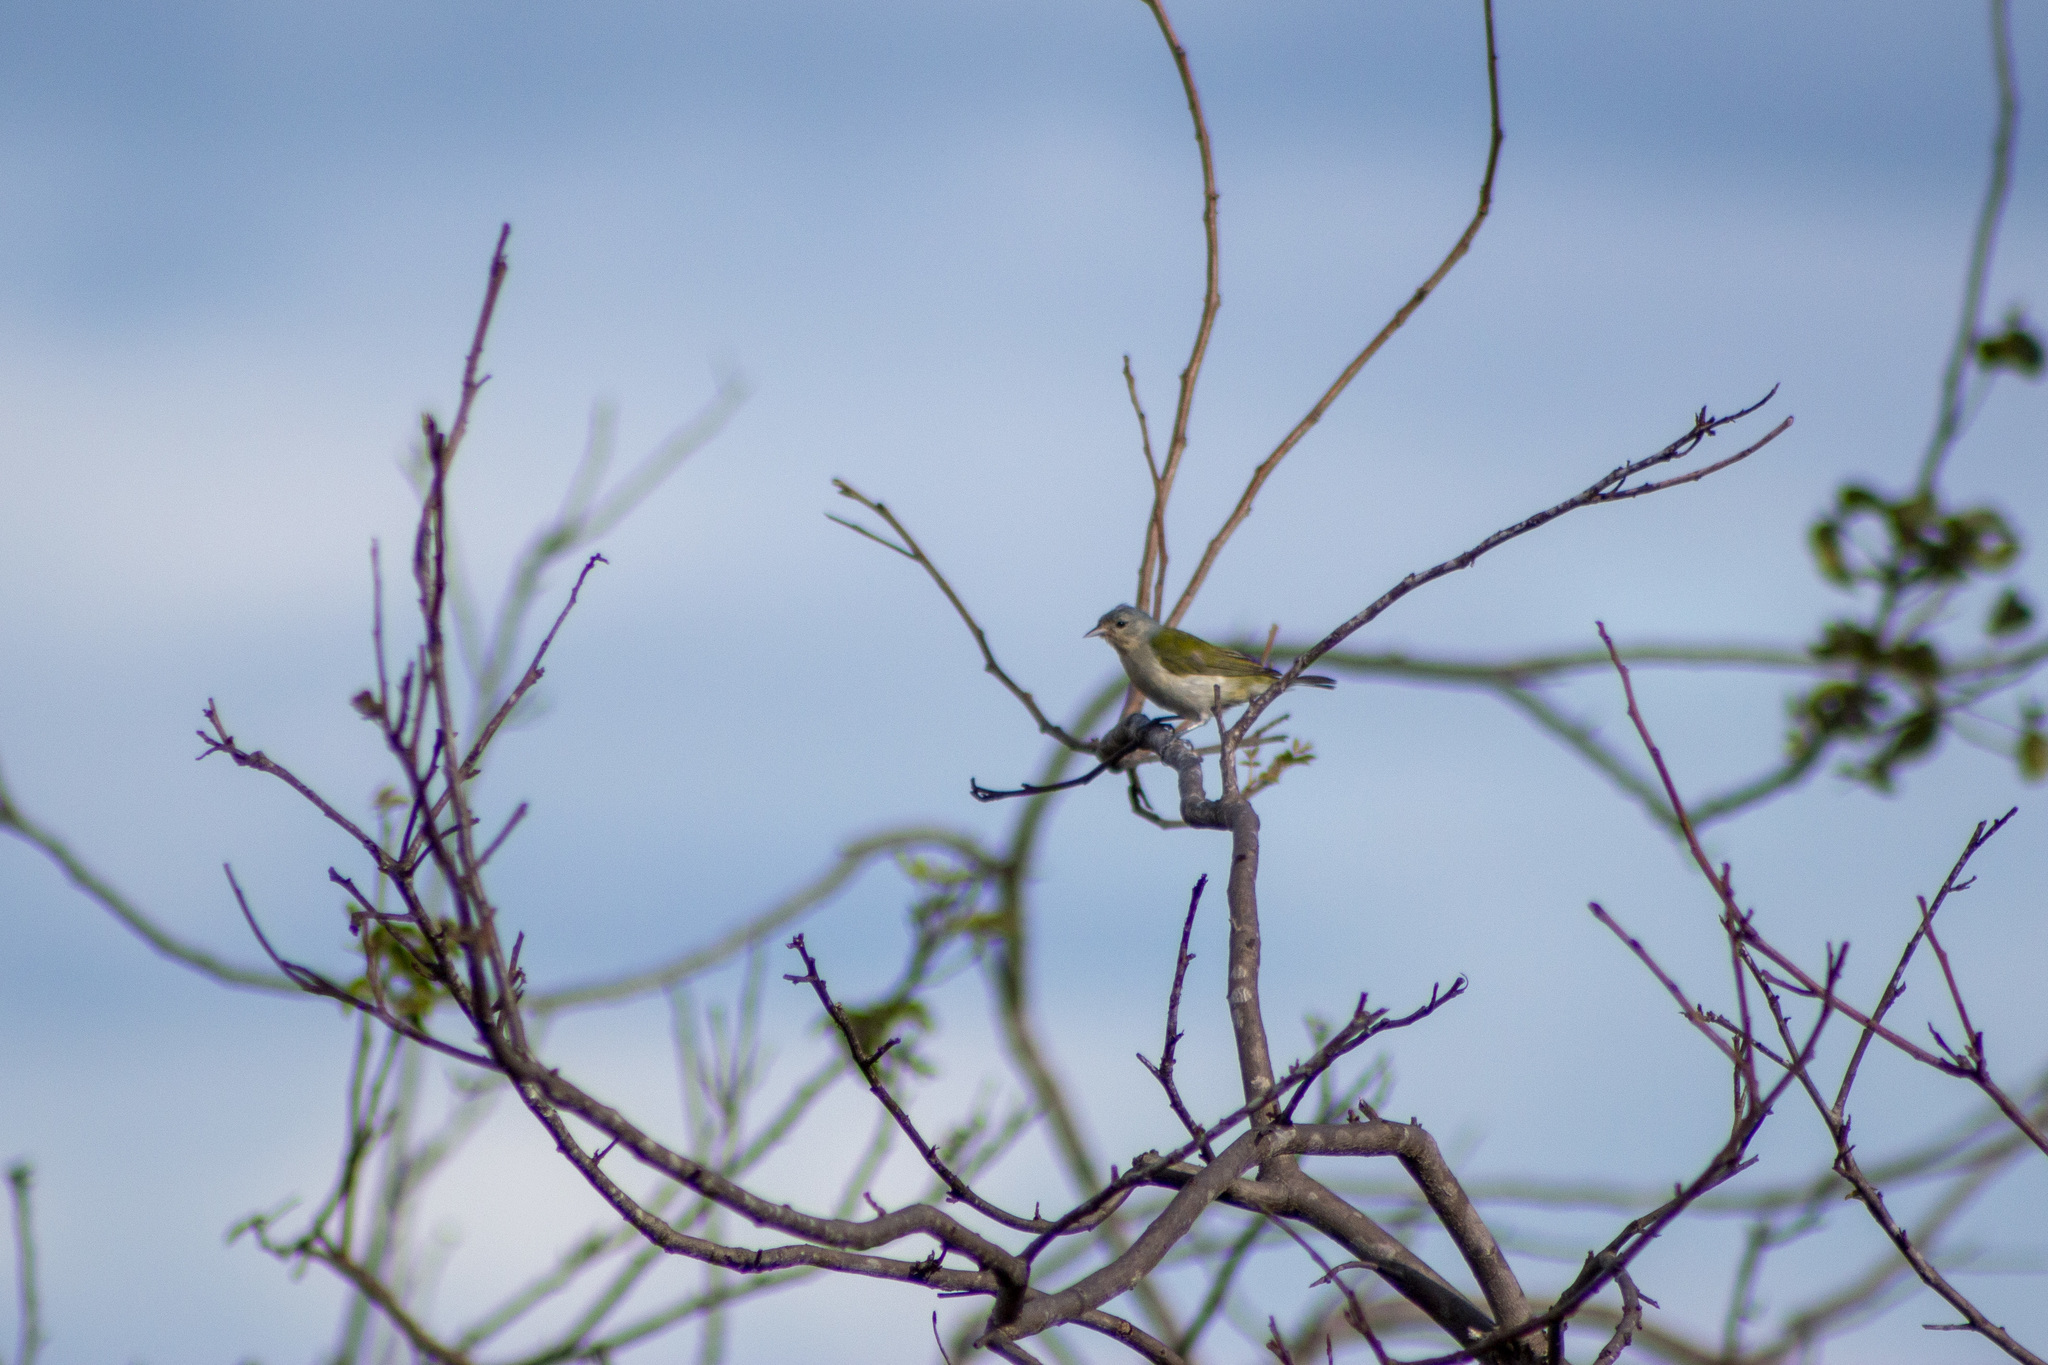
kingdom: Animalia
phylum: Chordata
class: Aves
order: Passeriformes
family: Thraupidae
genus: Conirostrum
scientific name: Conirostrum speciosum
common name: Chestnut-vented conebill
